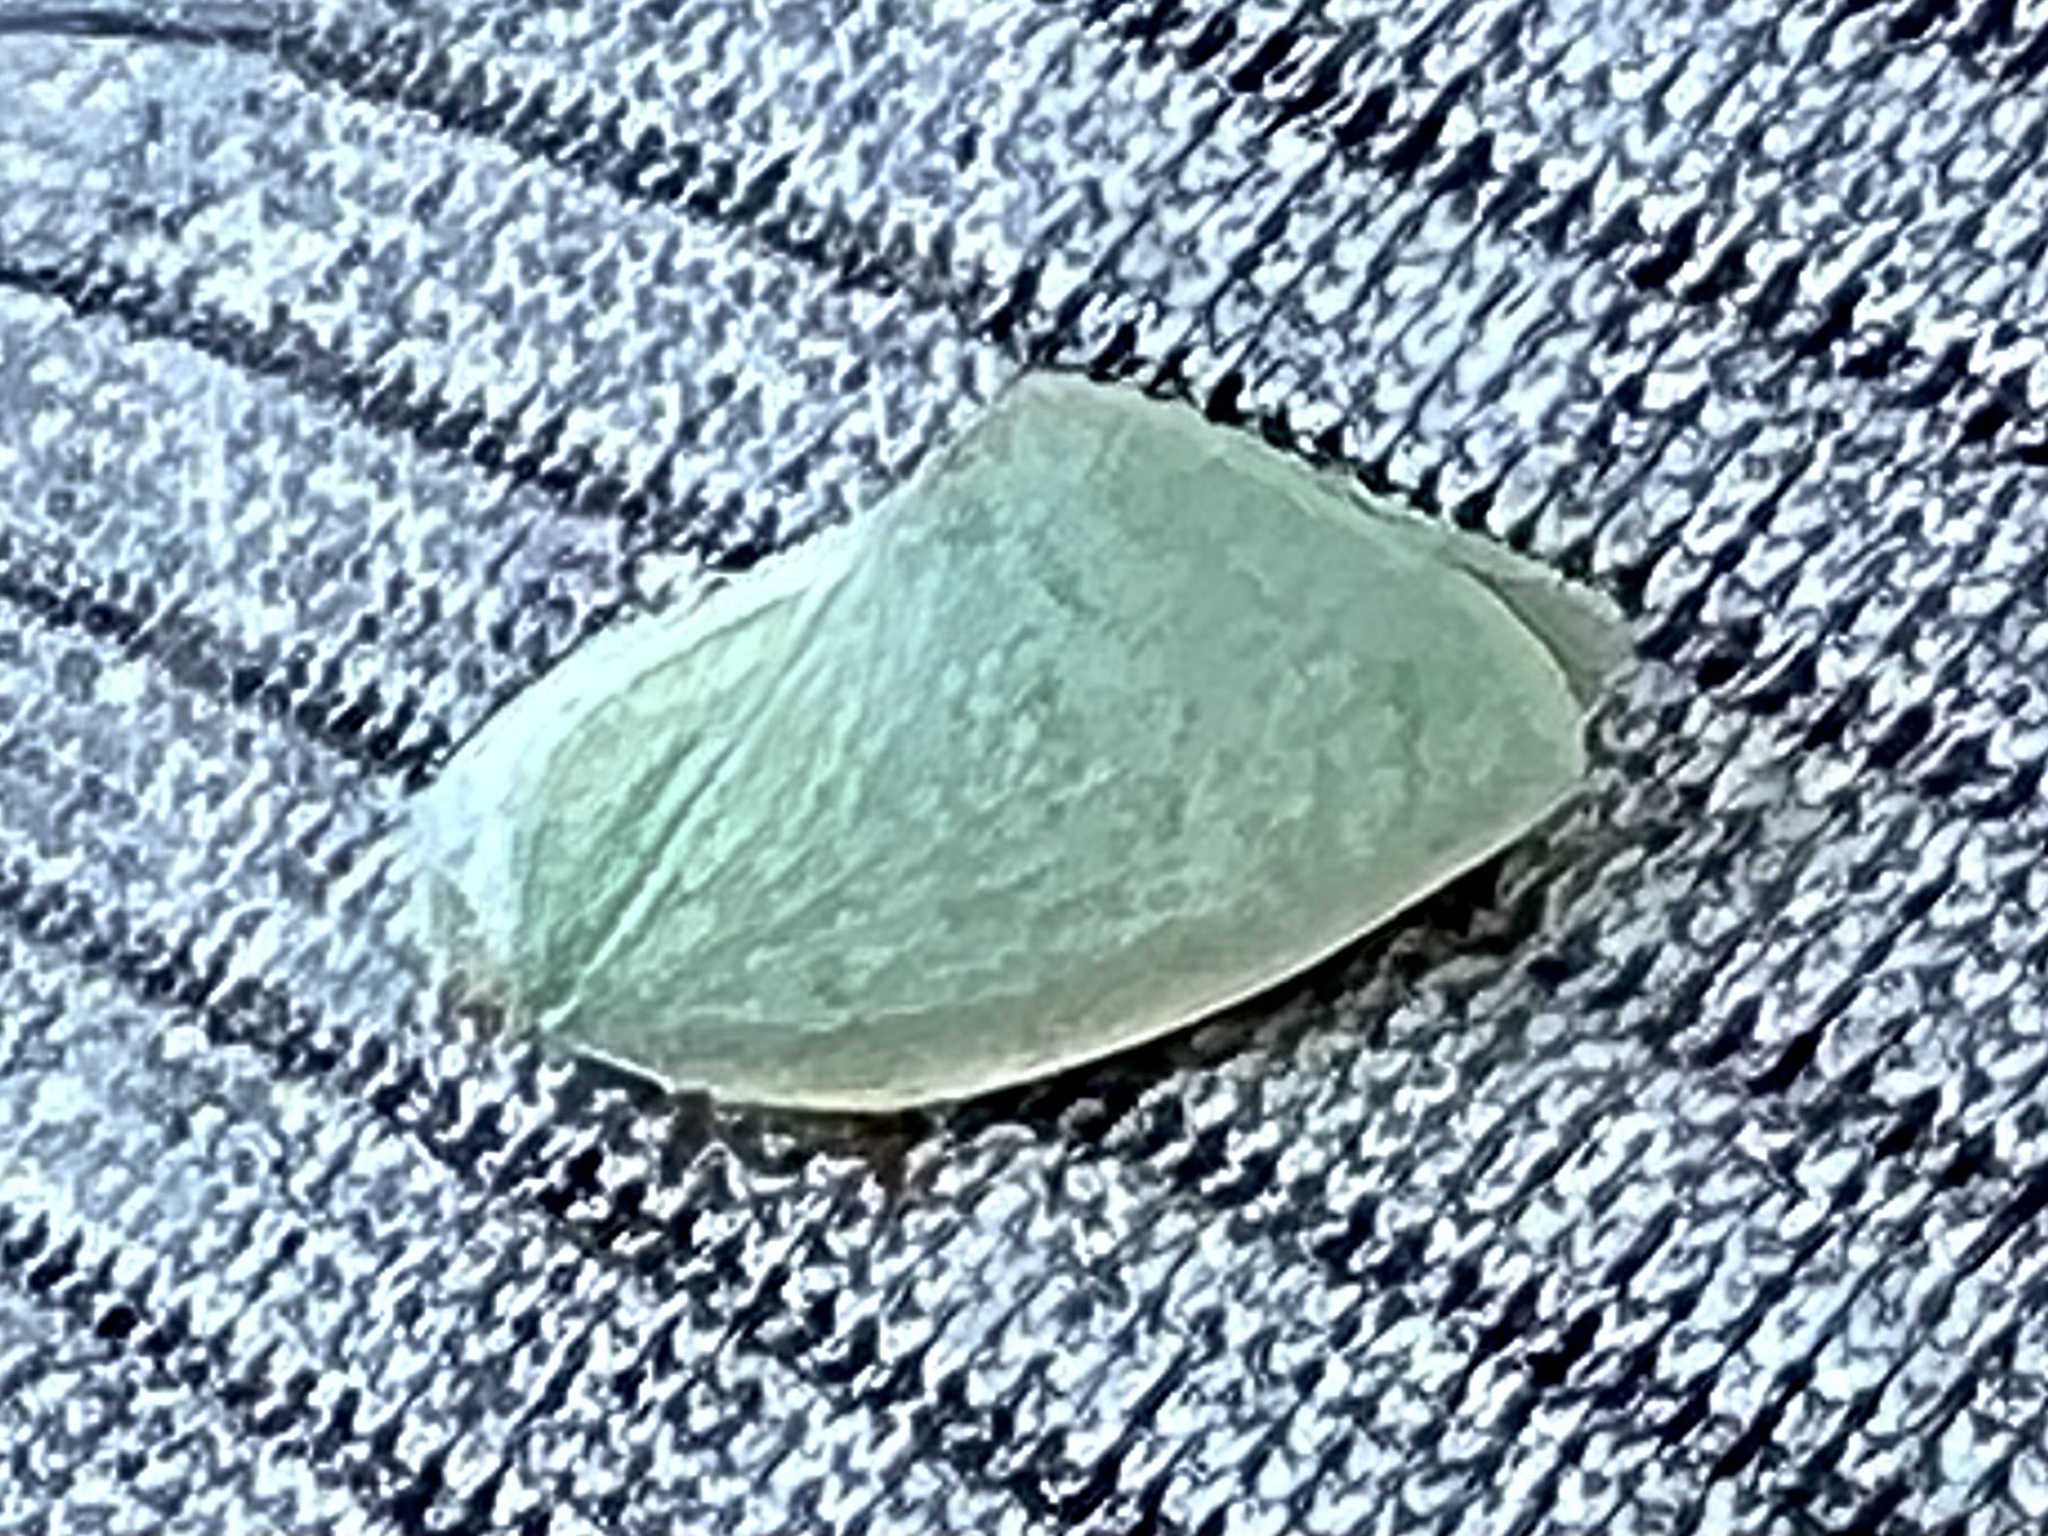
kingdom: Animalia
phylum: Arthropoda
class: Insecta
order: Hemiptera
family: Flatidae
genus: Flatormenis
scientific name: Flatormenis proxima
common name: Northern flatid planthopper
